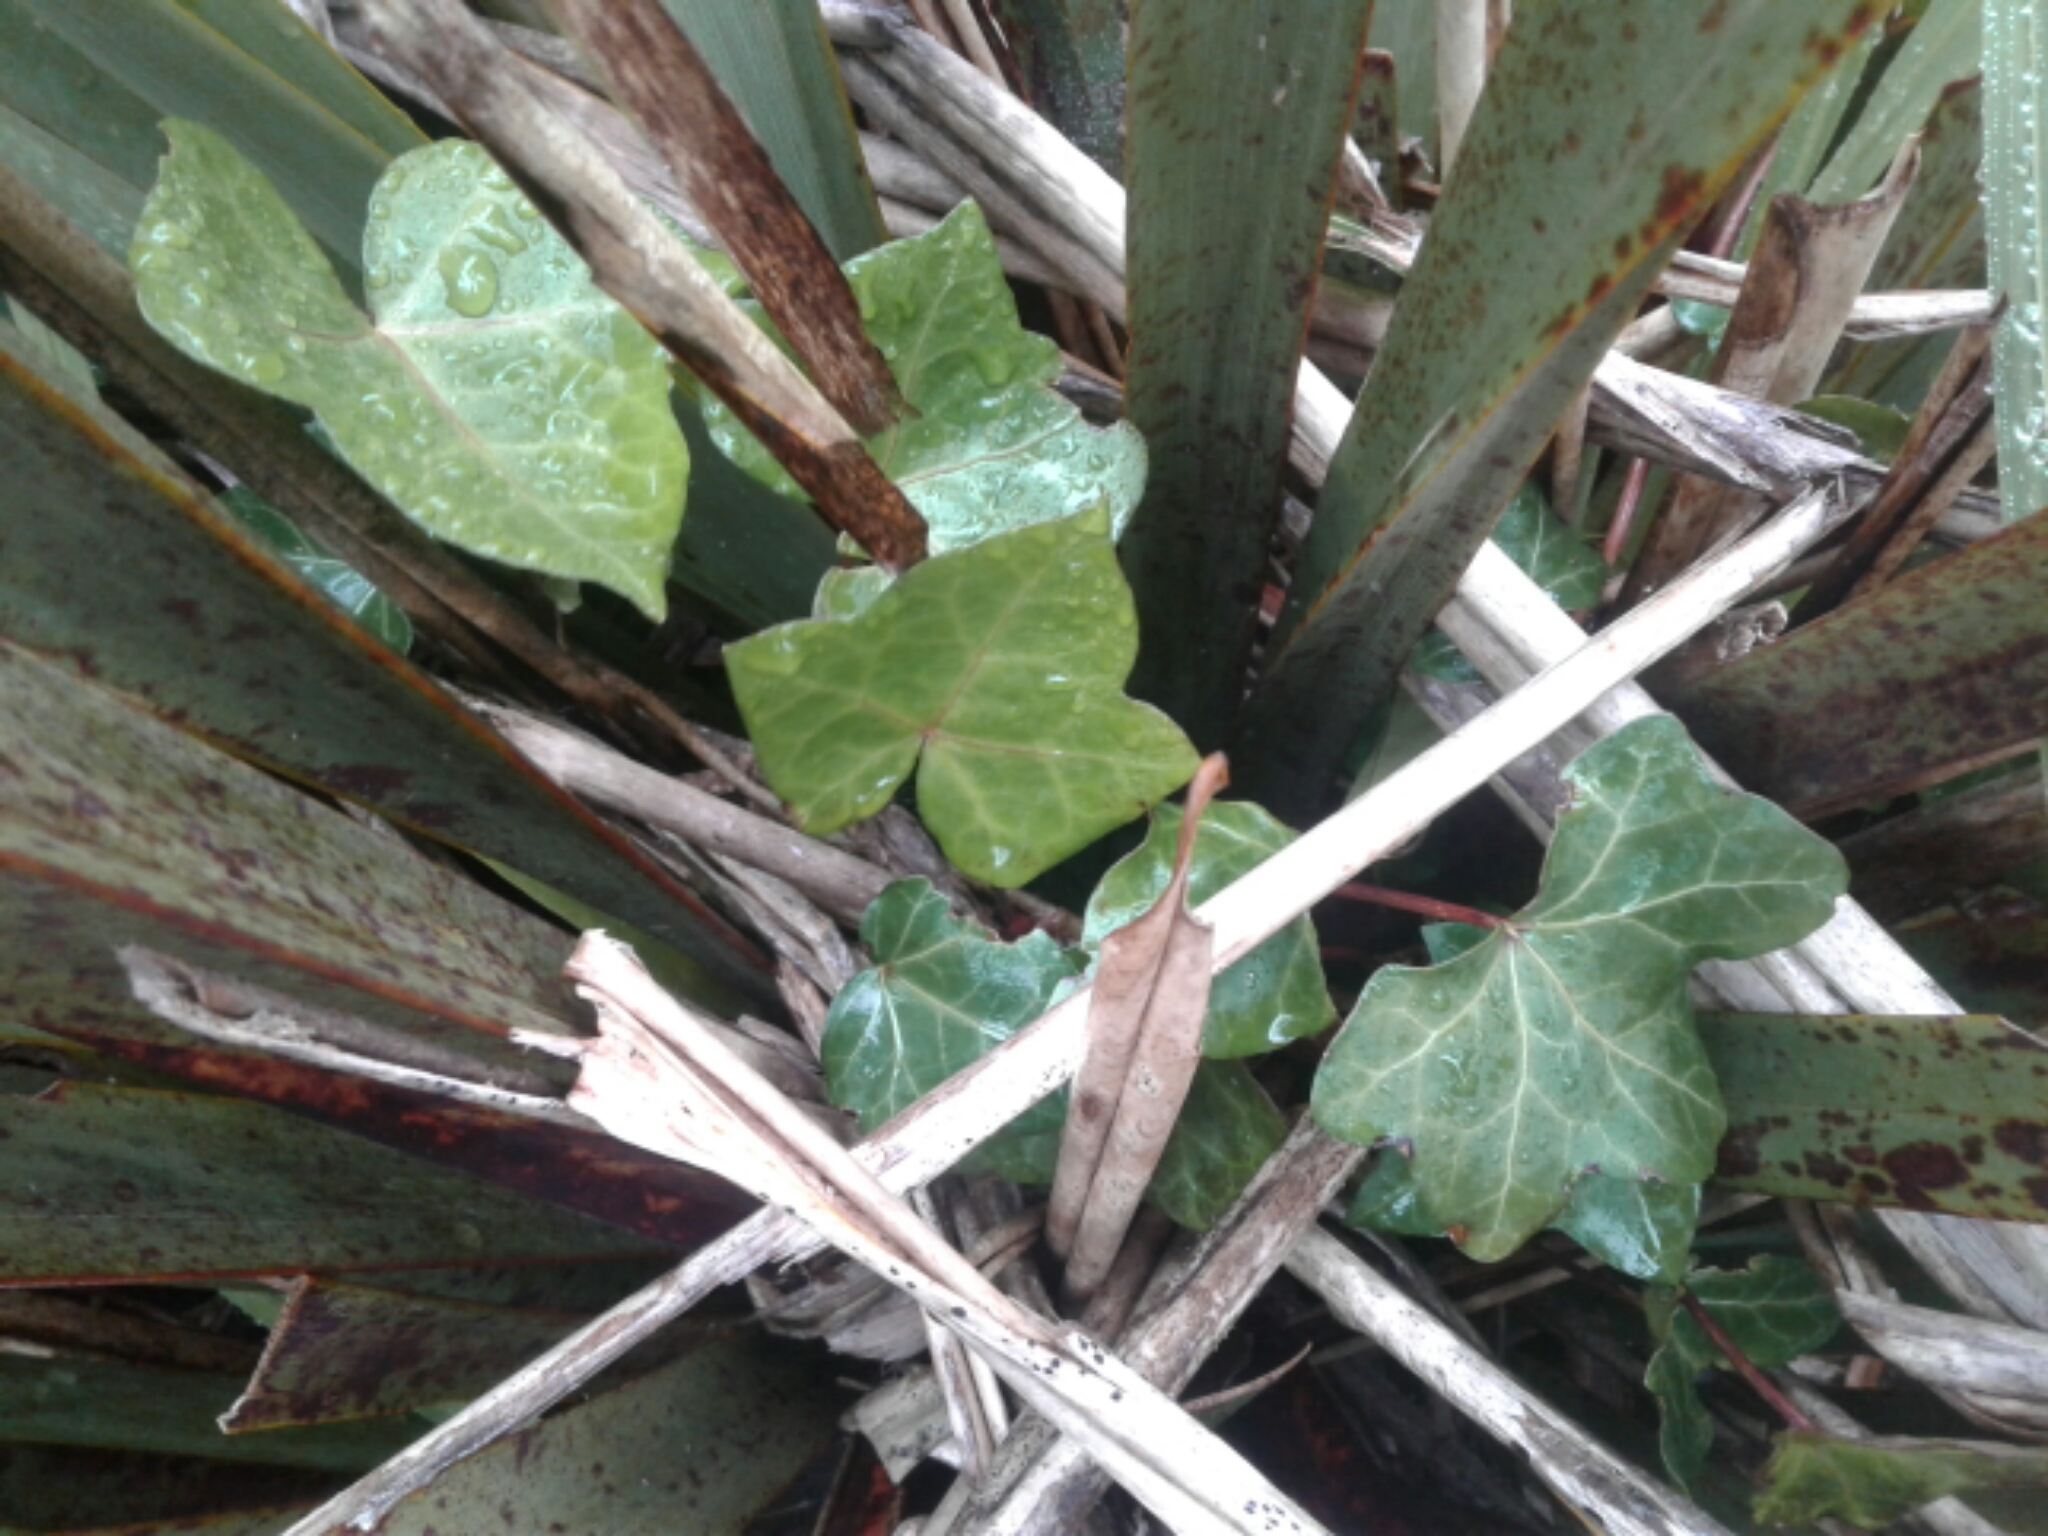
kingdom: Plantae
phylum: Tracheophyta
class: Magnoliopsida
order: Apiales
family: Araliaceae
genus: Hedera
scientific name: Hedera helix
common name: Ivy
